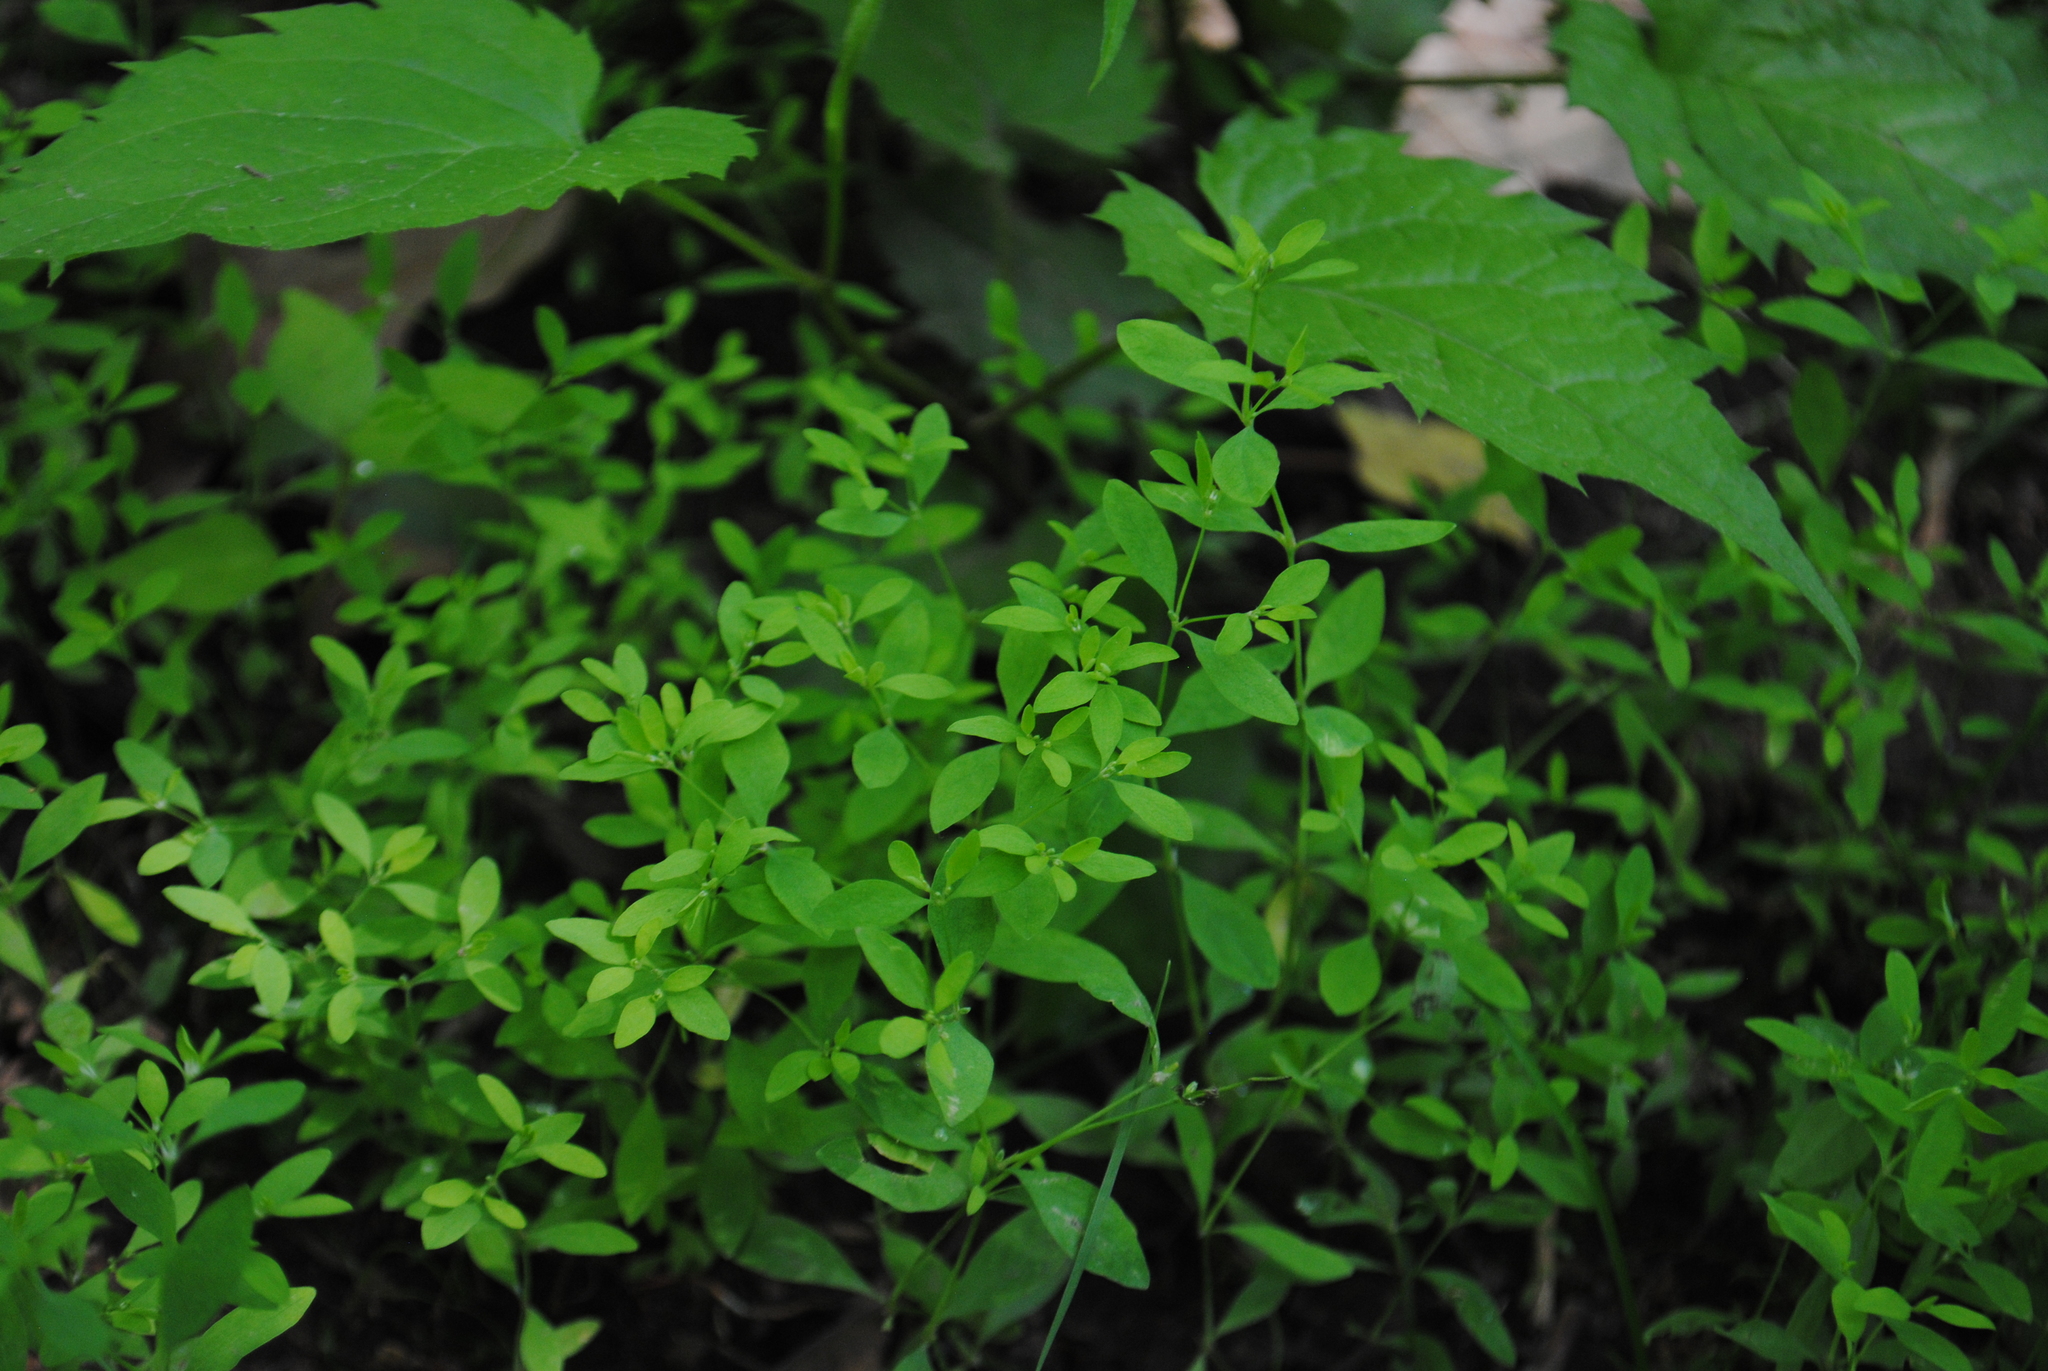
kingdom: Plantae
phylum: Tracheophyta
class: Magnoliopsida
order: Caryophyllales
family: Caryophyllaceae
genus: Paronychia
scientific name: Paronychia canadensis
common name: Canada forked nailwort
